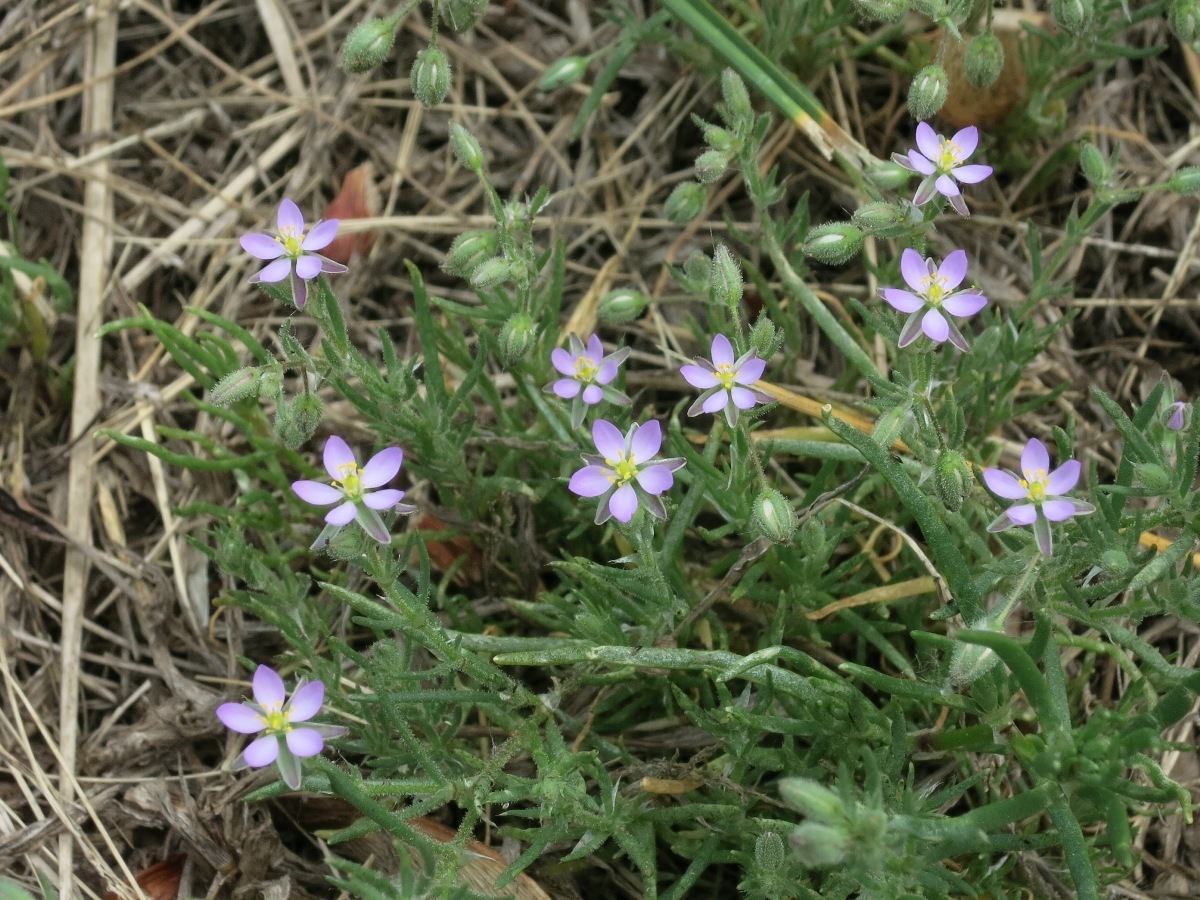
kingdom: Plantae
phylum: Tracheophyta
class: Magnoliopsida
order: Caryophyllales
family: Caryophyllaceae
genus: Spergularia
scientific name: Spergularia rubra
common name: Red sand-spurrey
